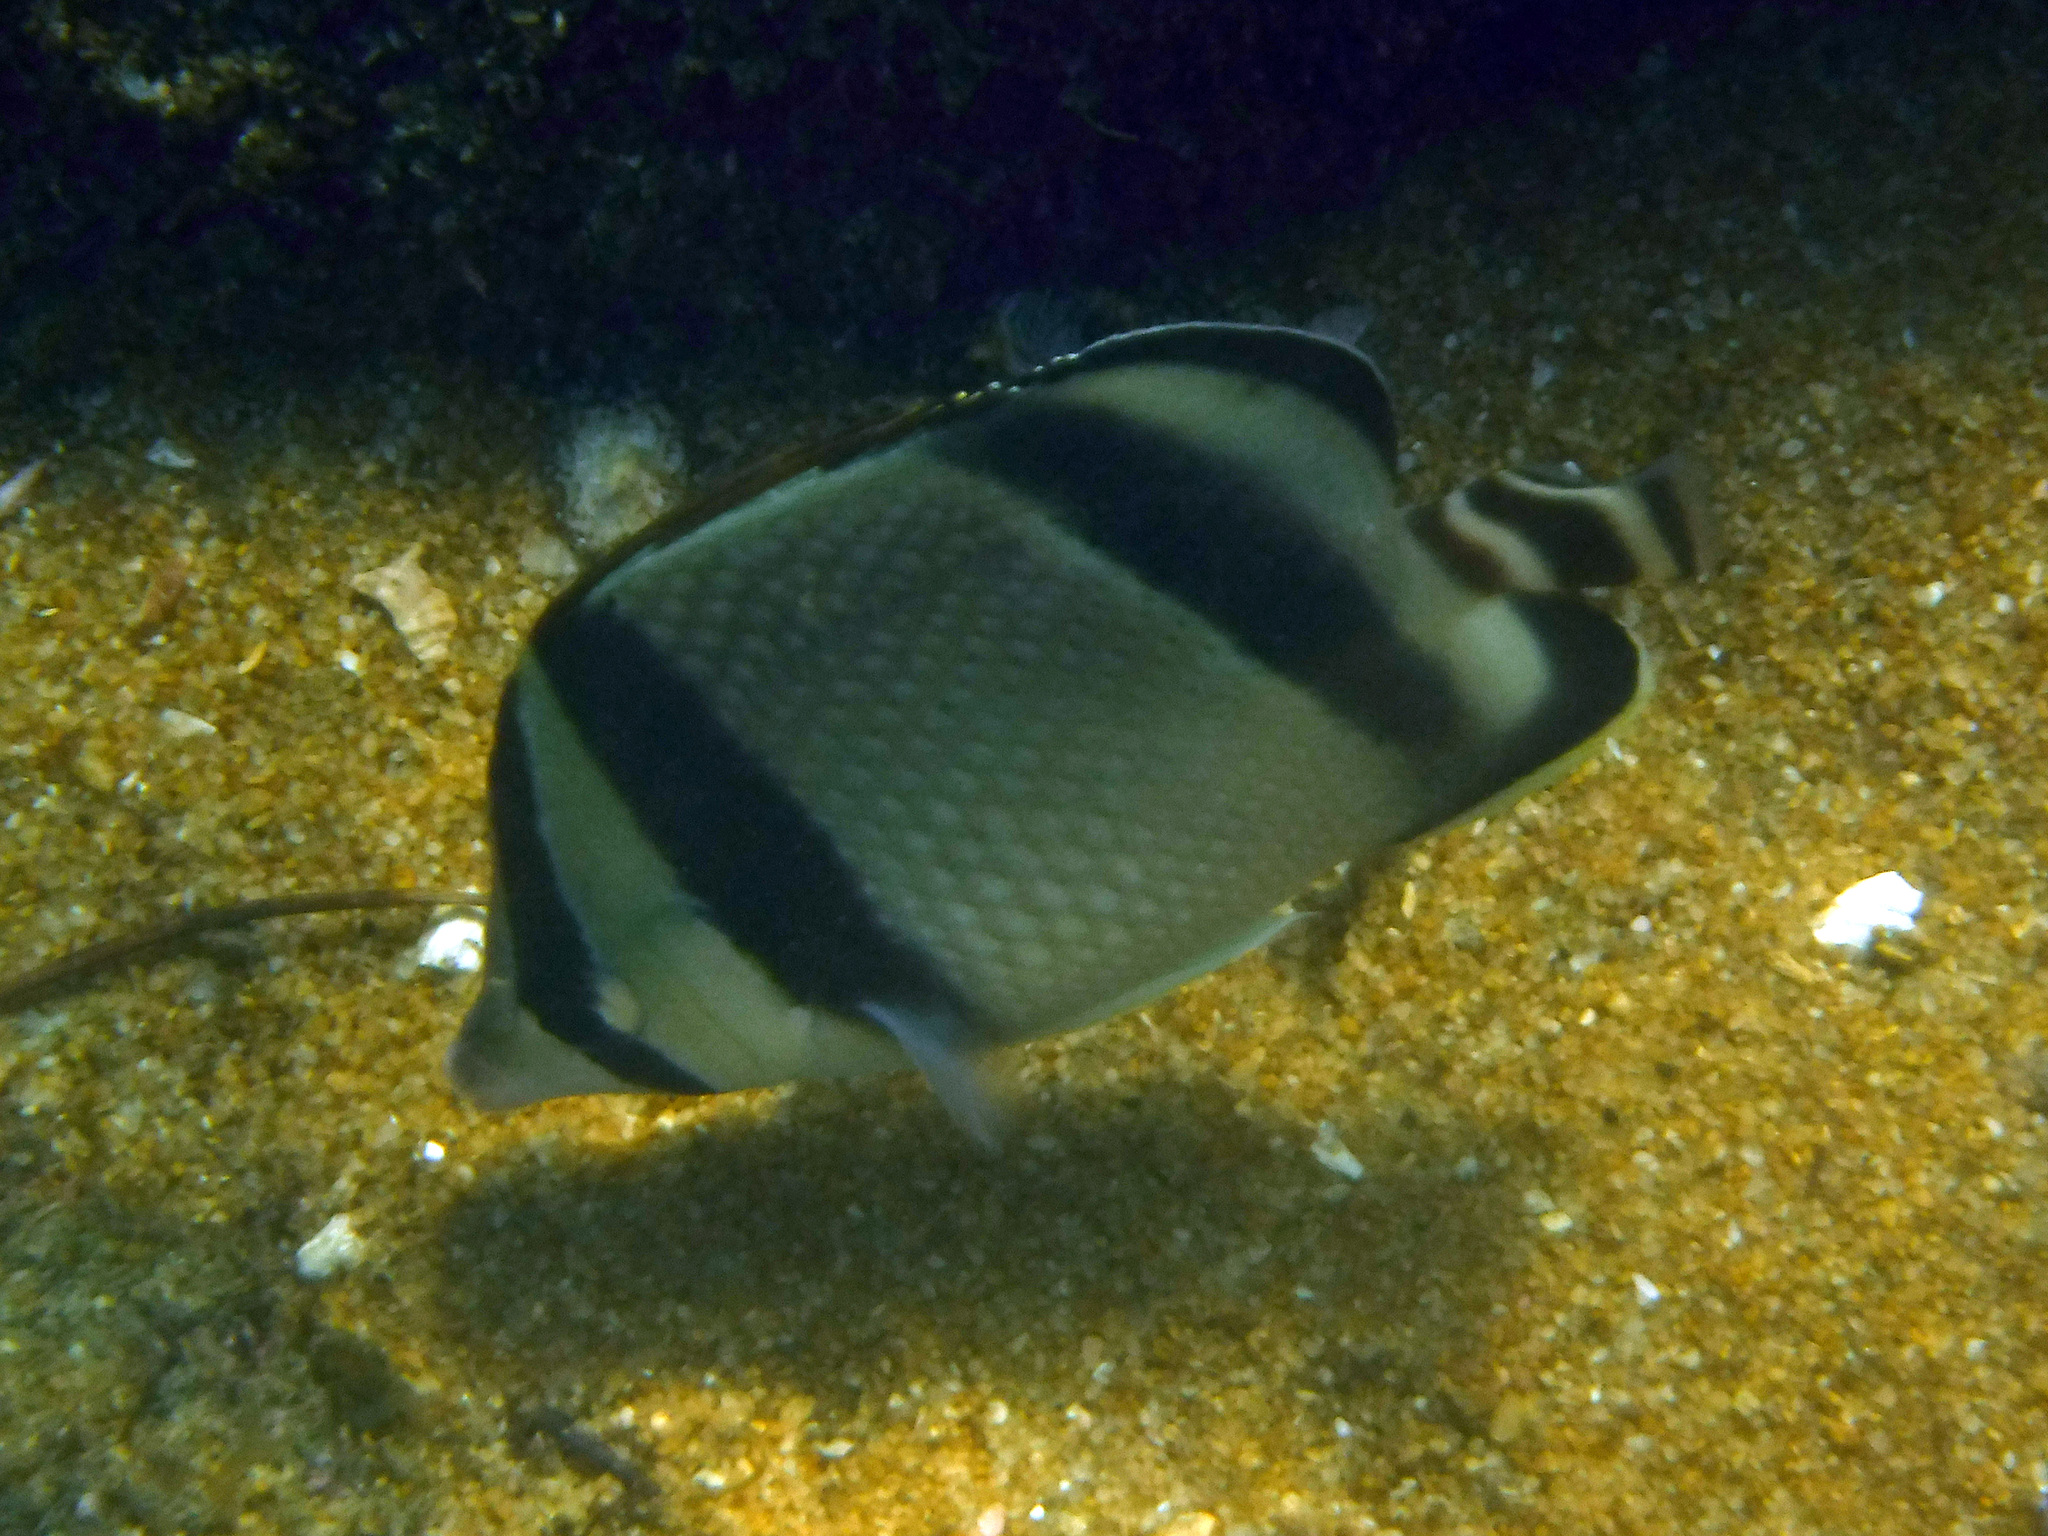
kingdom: Animalia
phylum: Chordata
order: Perciformes
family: Chaetodontidae
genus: Chaetodon
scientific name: Chaetodon humeralis
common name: Threebanded butterflyfish
